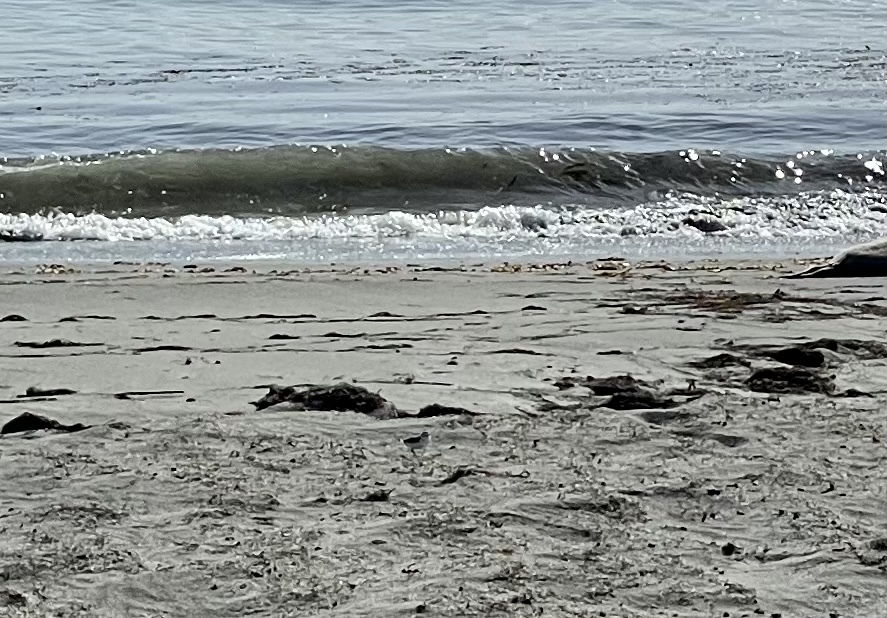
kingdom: Animalia
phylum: Chordata
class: Aves
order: Charadriiformes
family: Charadriidae
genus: Anarhynchus
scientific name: Anarhynchus
